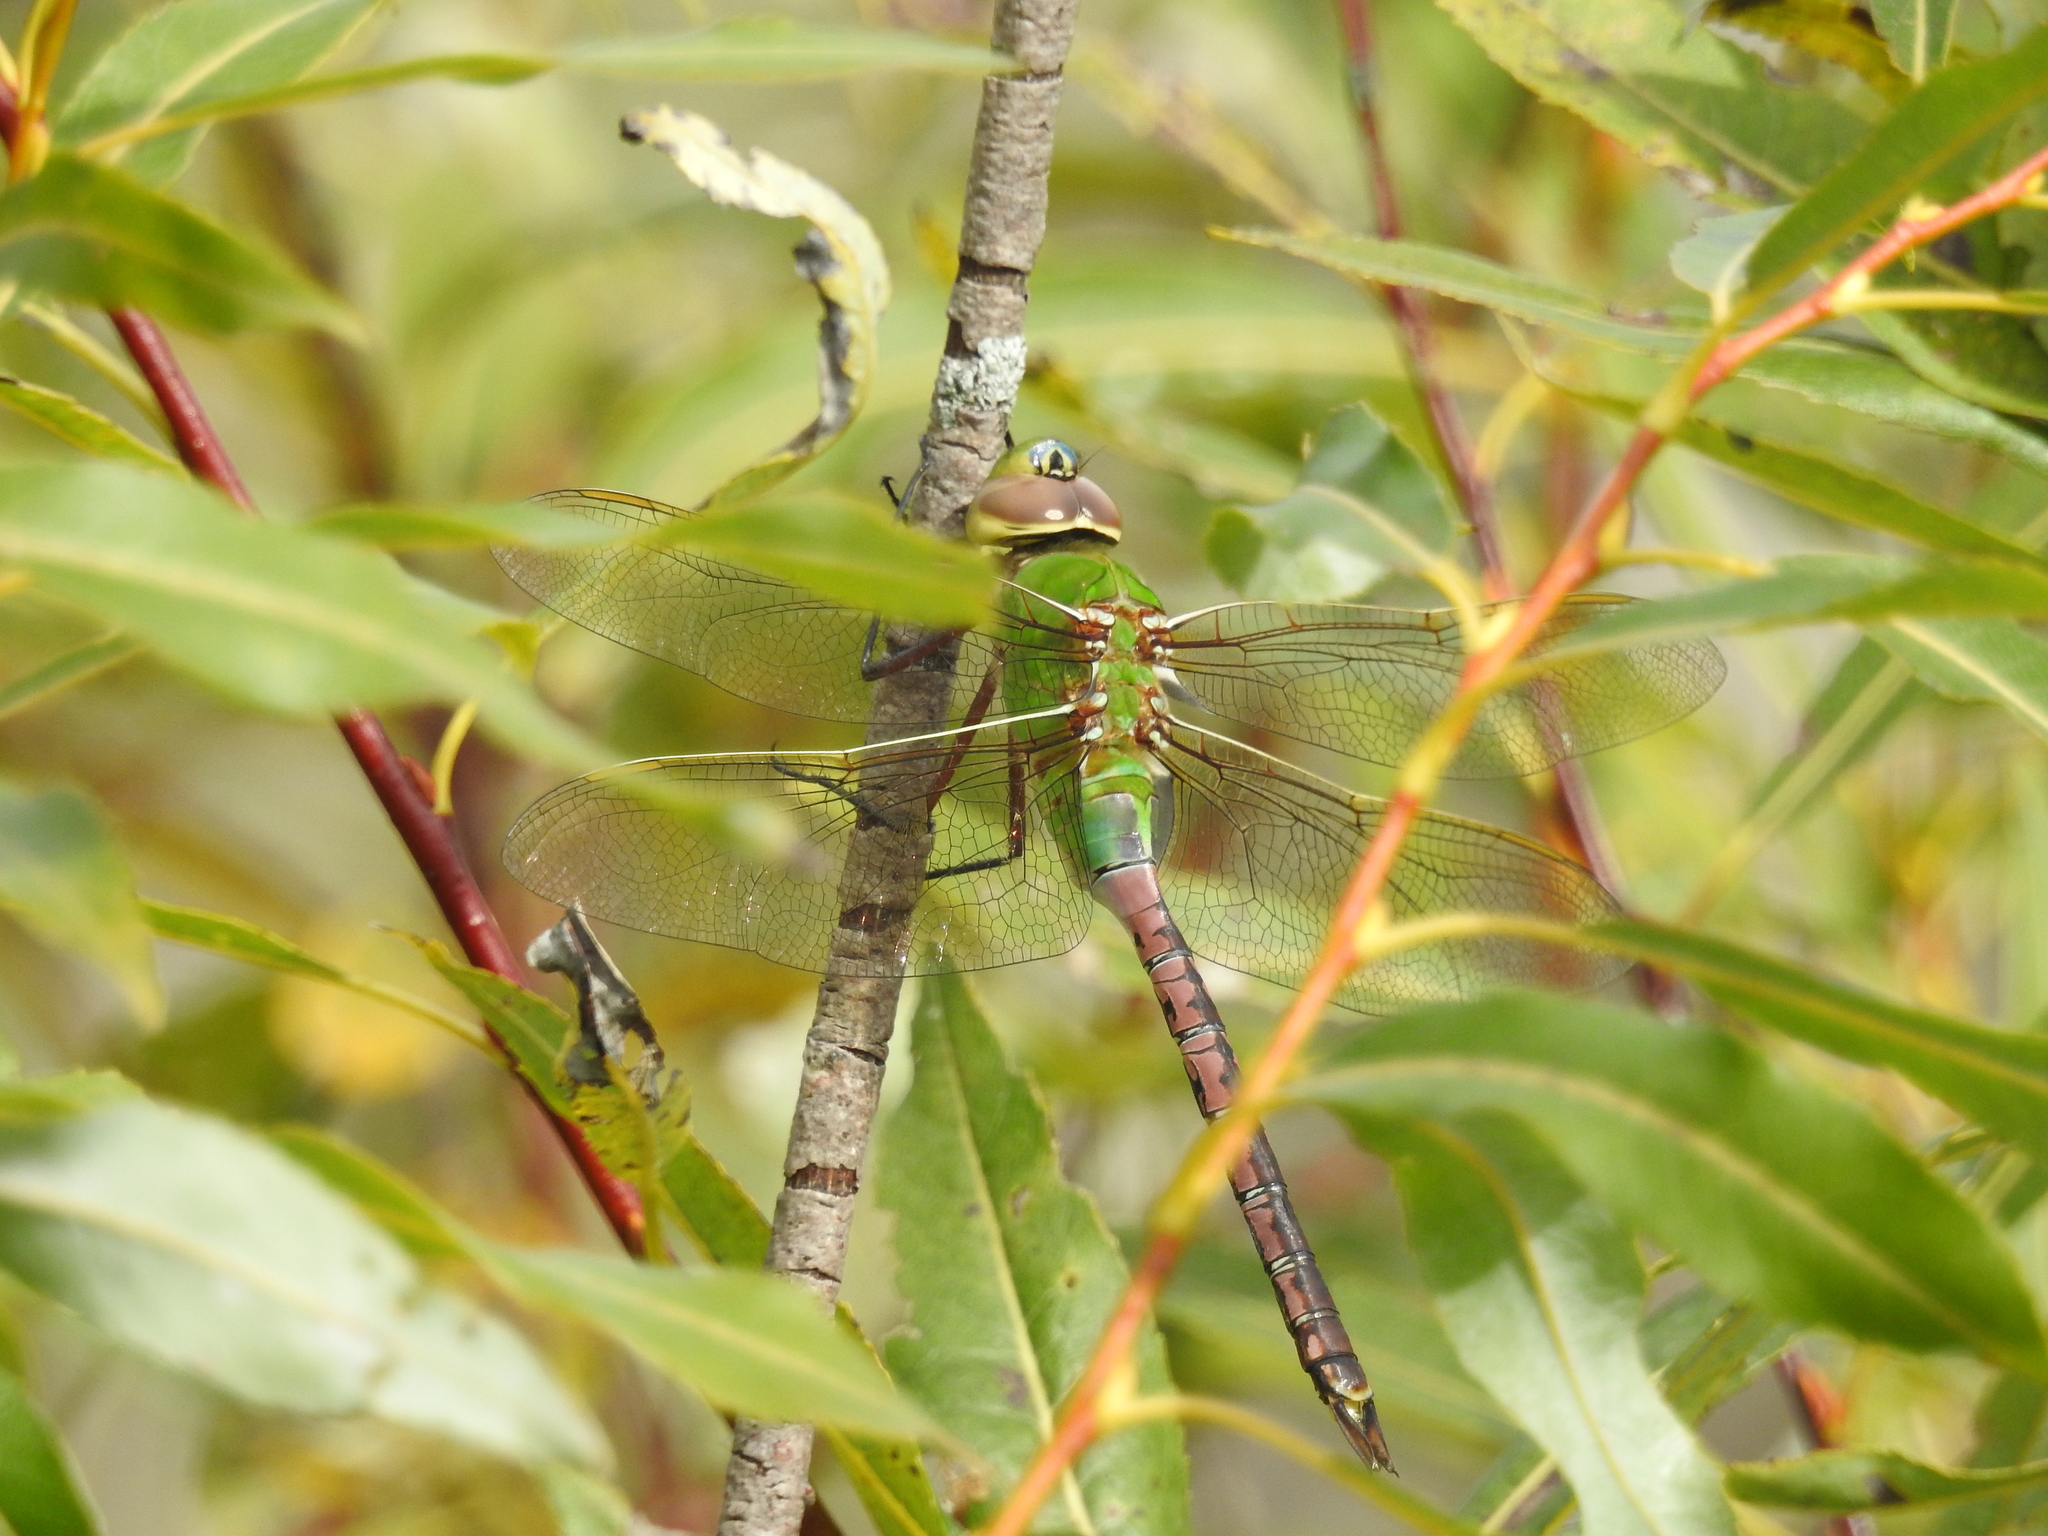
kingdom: Animalia
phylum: Arthropoda
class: Insecta
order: Odonata
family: Aeshnidae
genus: Anax
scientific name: Anax junius
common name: Common green darner
